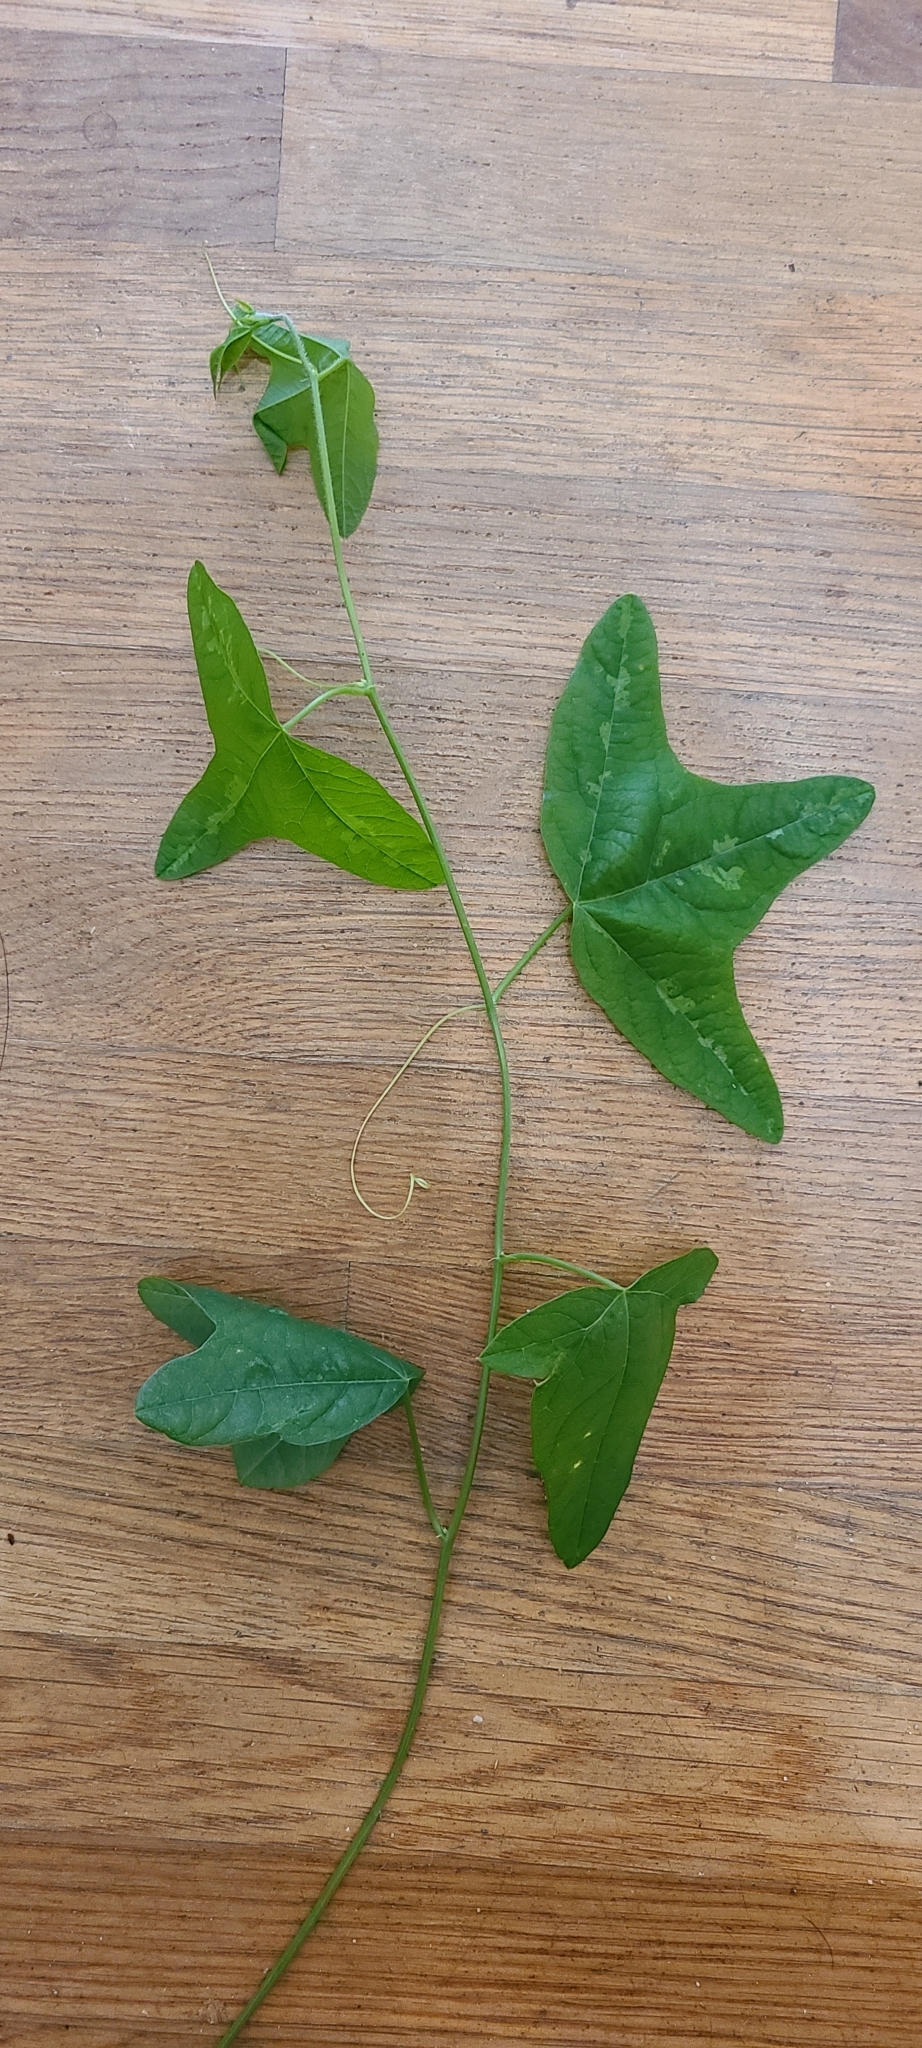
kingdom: Plantae
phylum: Tracheophyta
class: Magnoliopsida
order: Malpighiales
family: Passifloraceae
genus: Passiflora
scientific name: Passiflora lutea
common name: Yellow passionflower
